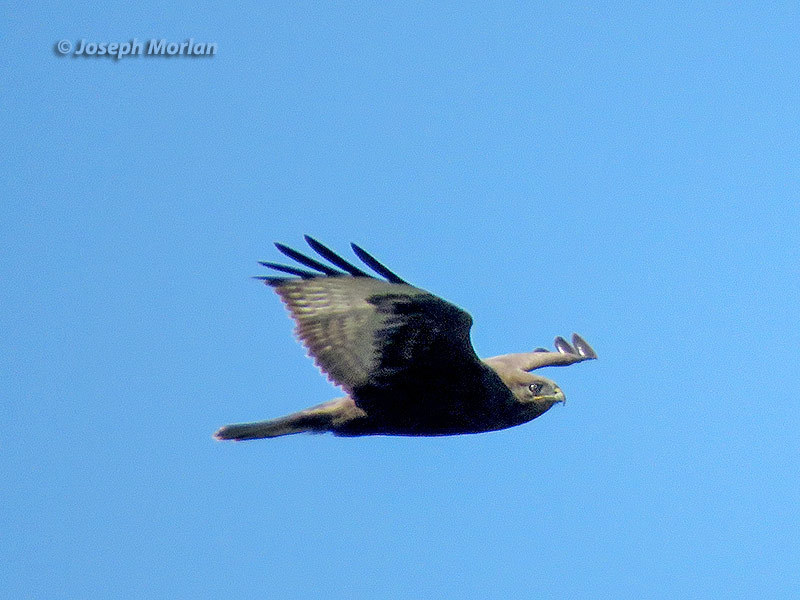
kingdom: Animalia
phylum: Chordata
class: Aves
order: Accipitriformes
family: Accipitridae
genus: Buteo
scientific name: Buteo lagopus
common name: Rough-legged buzzard
